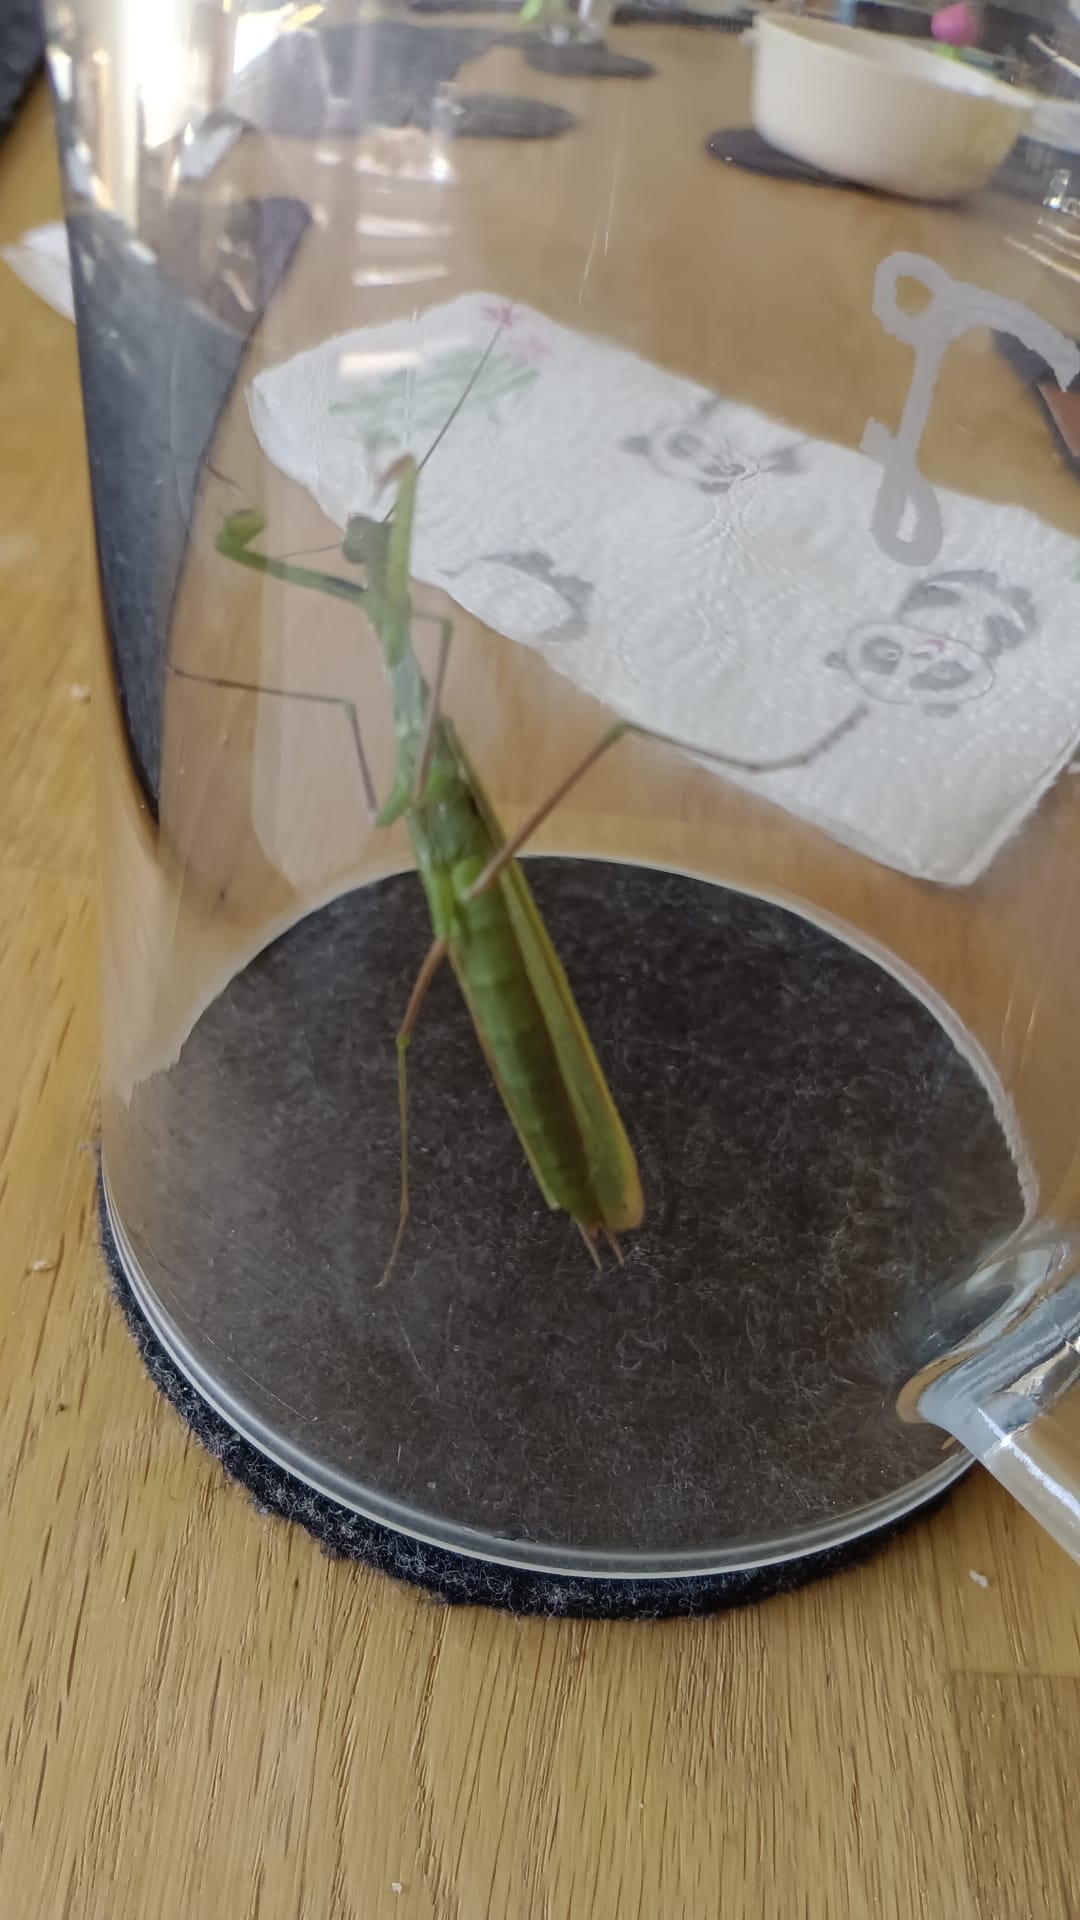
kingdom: Animalia
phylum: Arthropoda
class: Insecta
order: Mantodea
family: Mantidae
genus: Mantis
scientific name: Mantis religiosa
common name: Praying mantis
